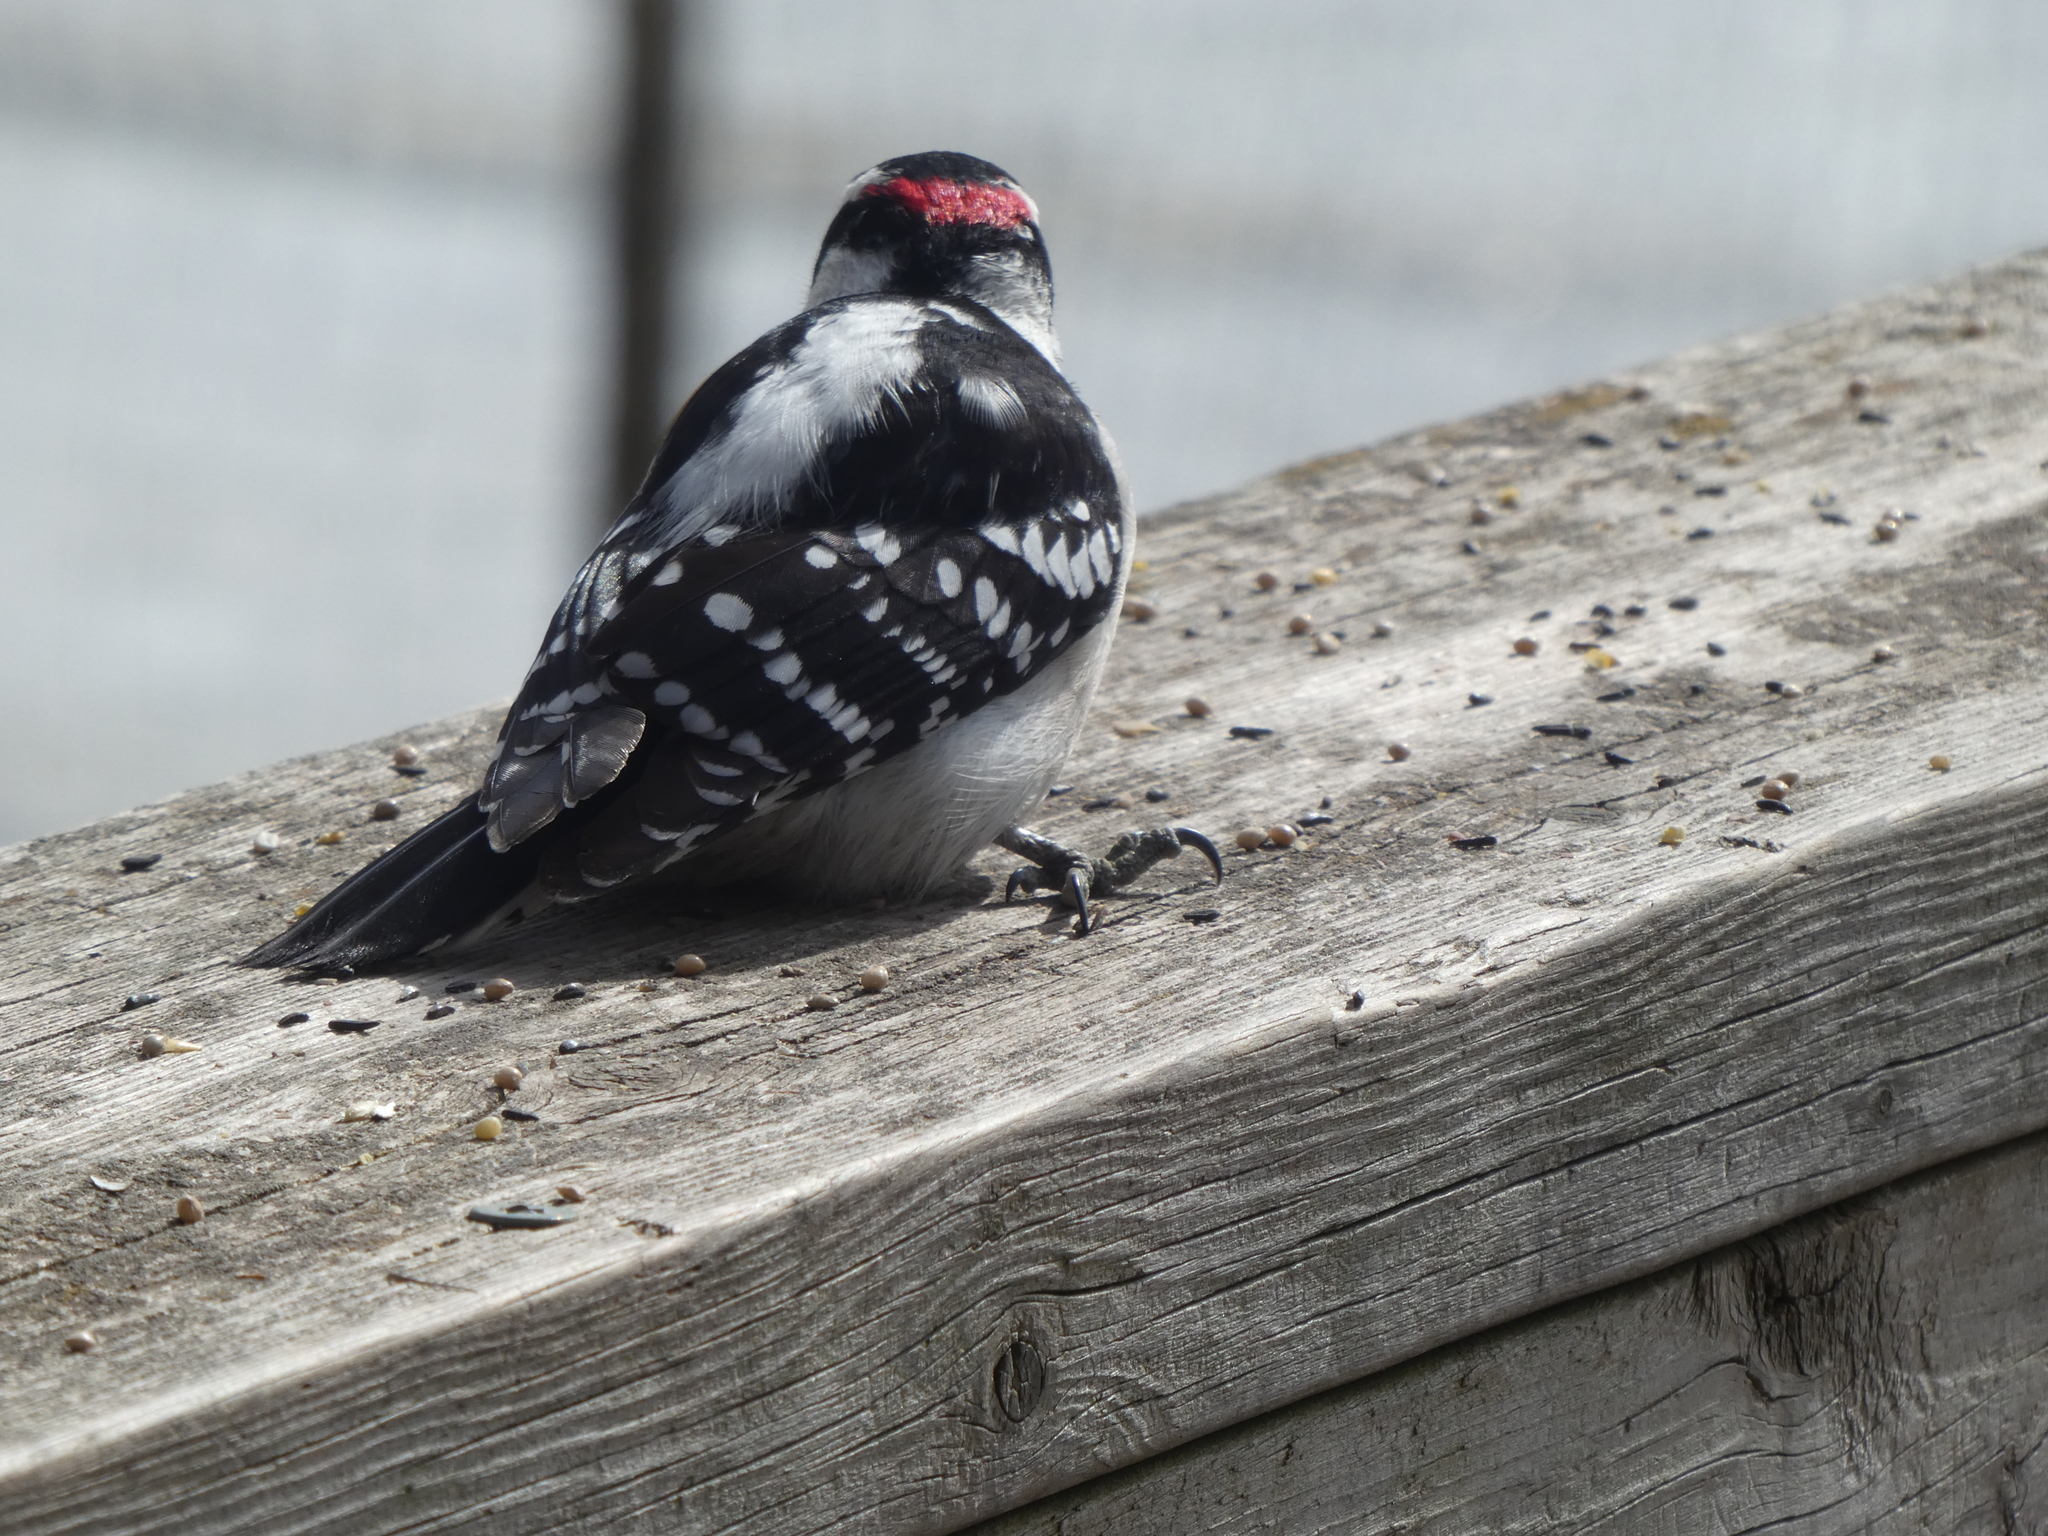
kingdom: Animalia
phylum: Chordata
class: Aves
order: Piciformes
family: Picidae
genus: Dryobates
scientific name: Dryobates pubescens
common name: Downy woodpecker
